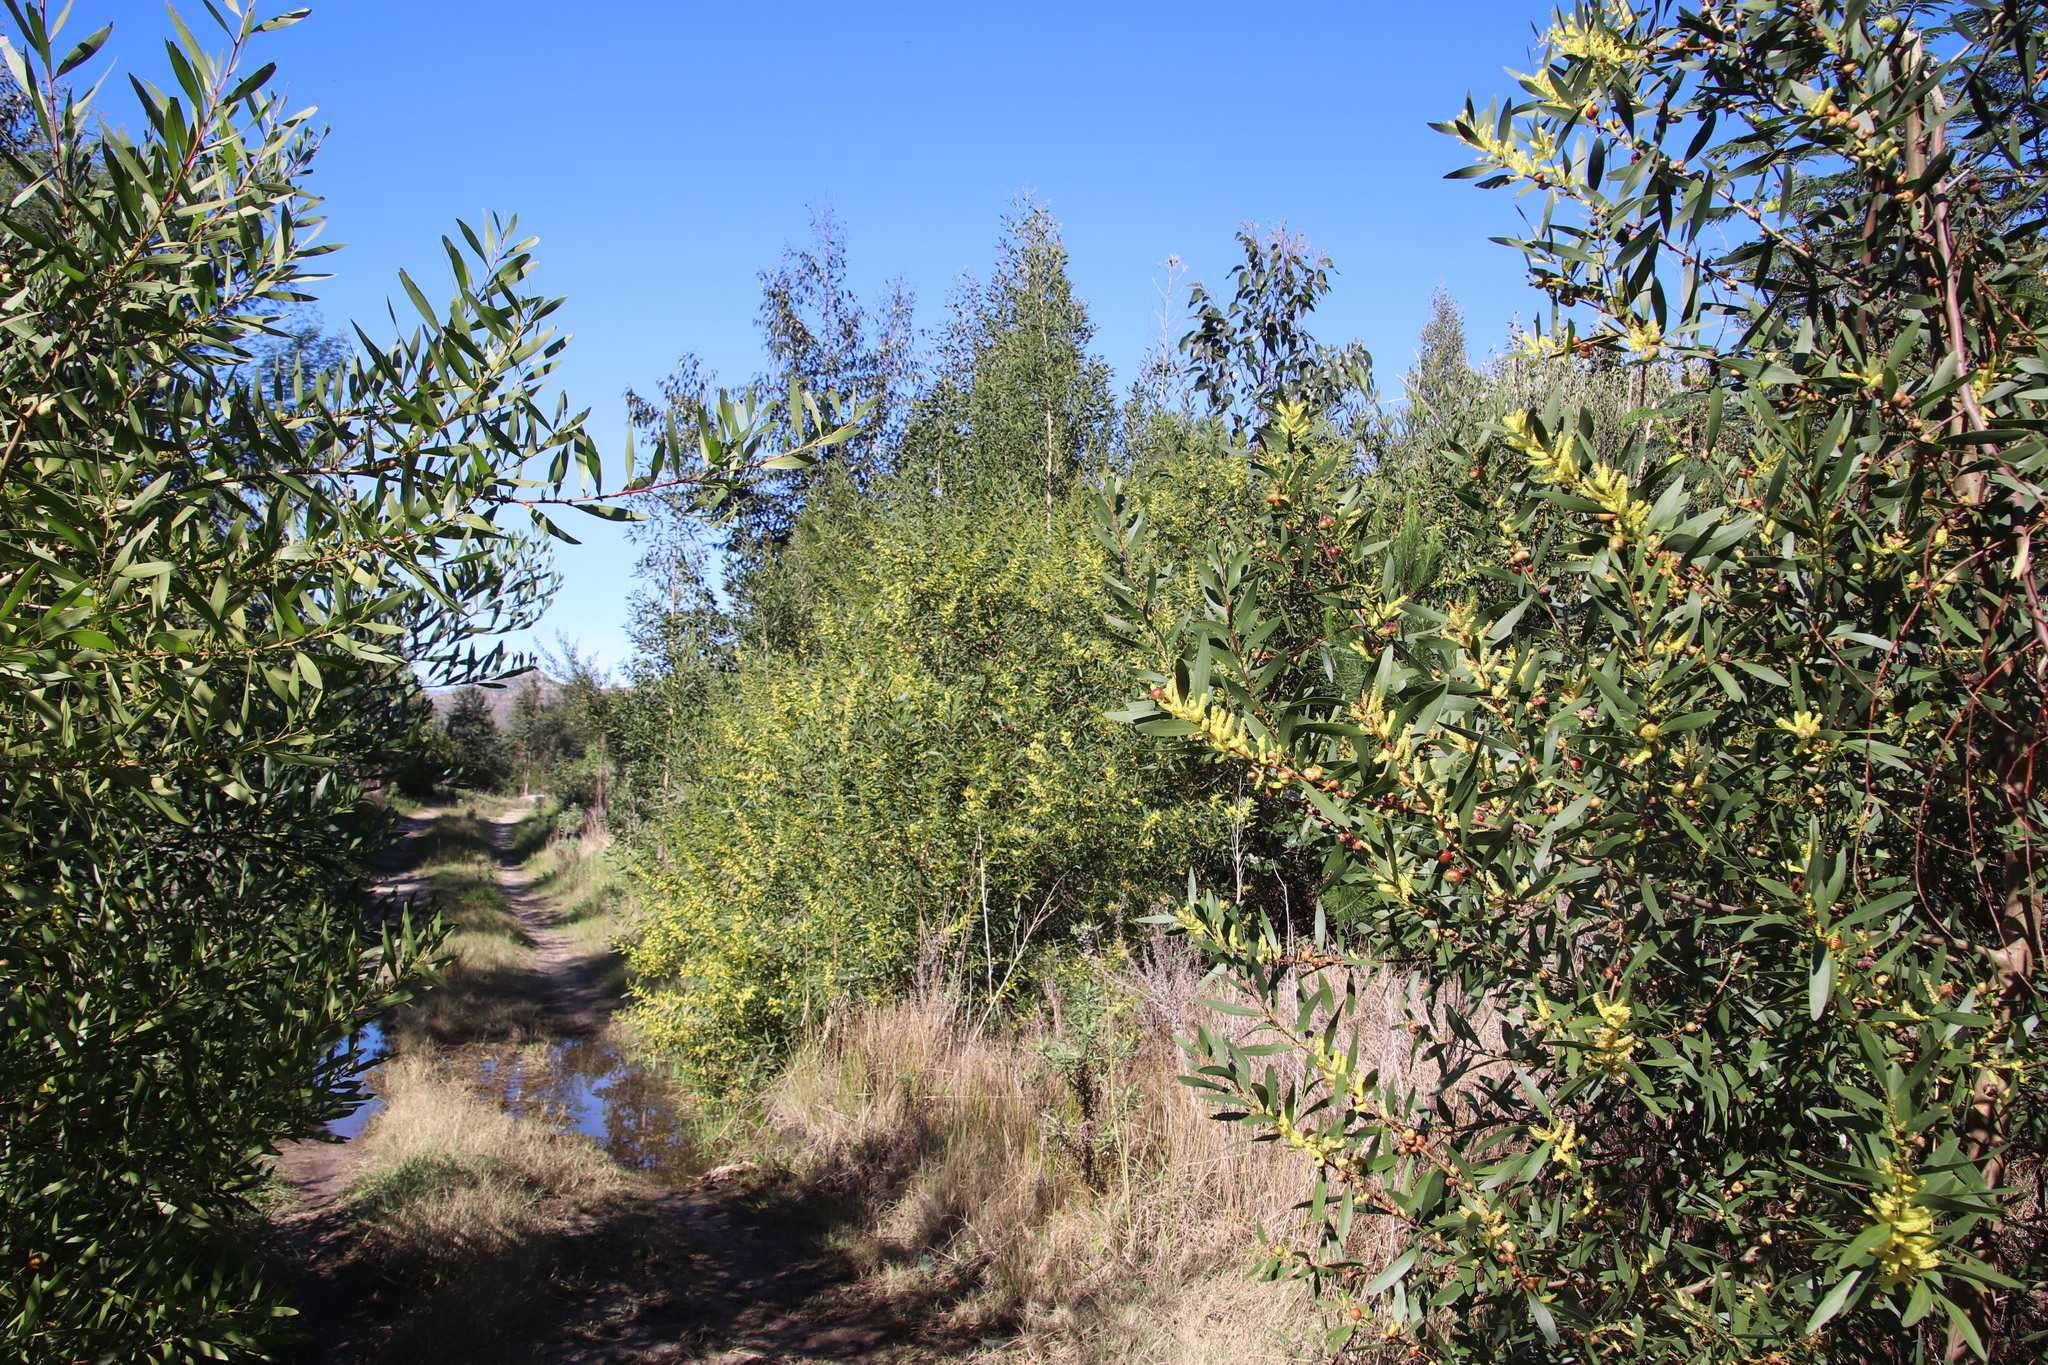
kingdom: Plantae
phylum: Tracheophyta
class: Magnoliopsida
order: Fabales
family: Fabaceae
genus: Acacia
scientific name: Acacia longifolia
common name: Sydney golden wattle
